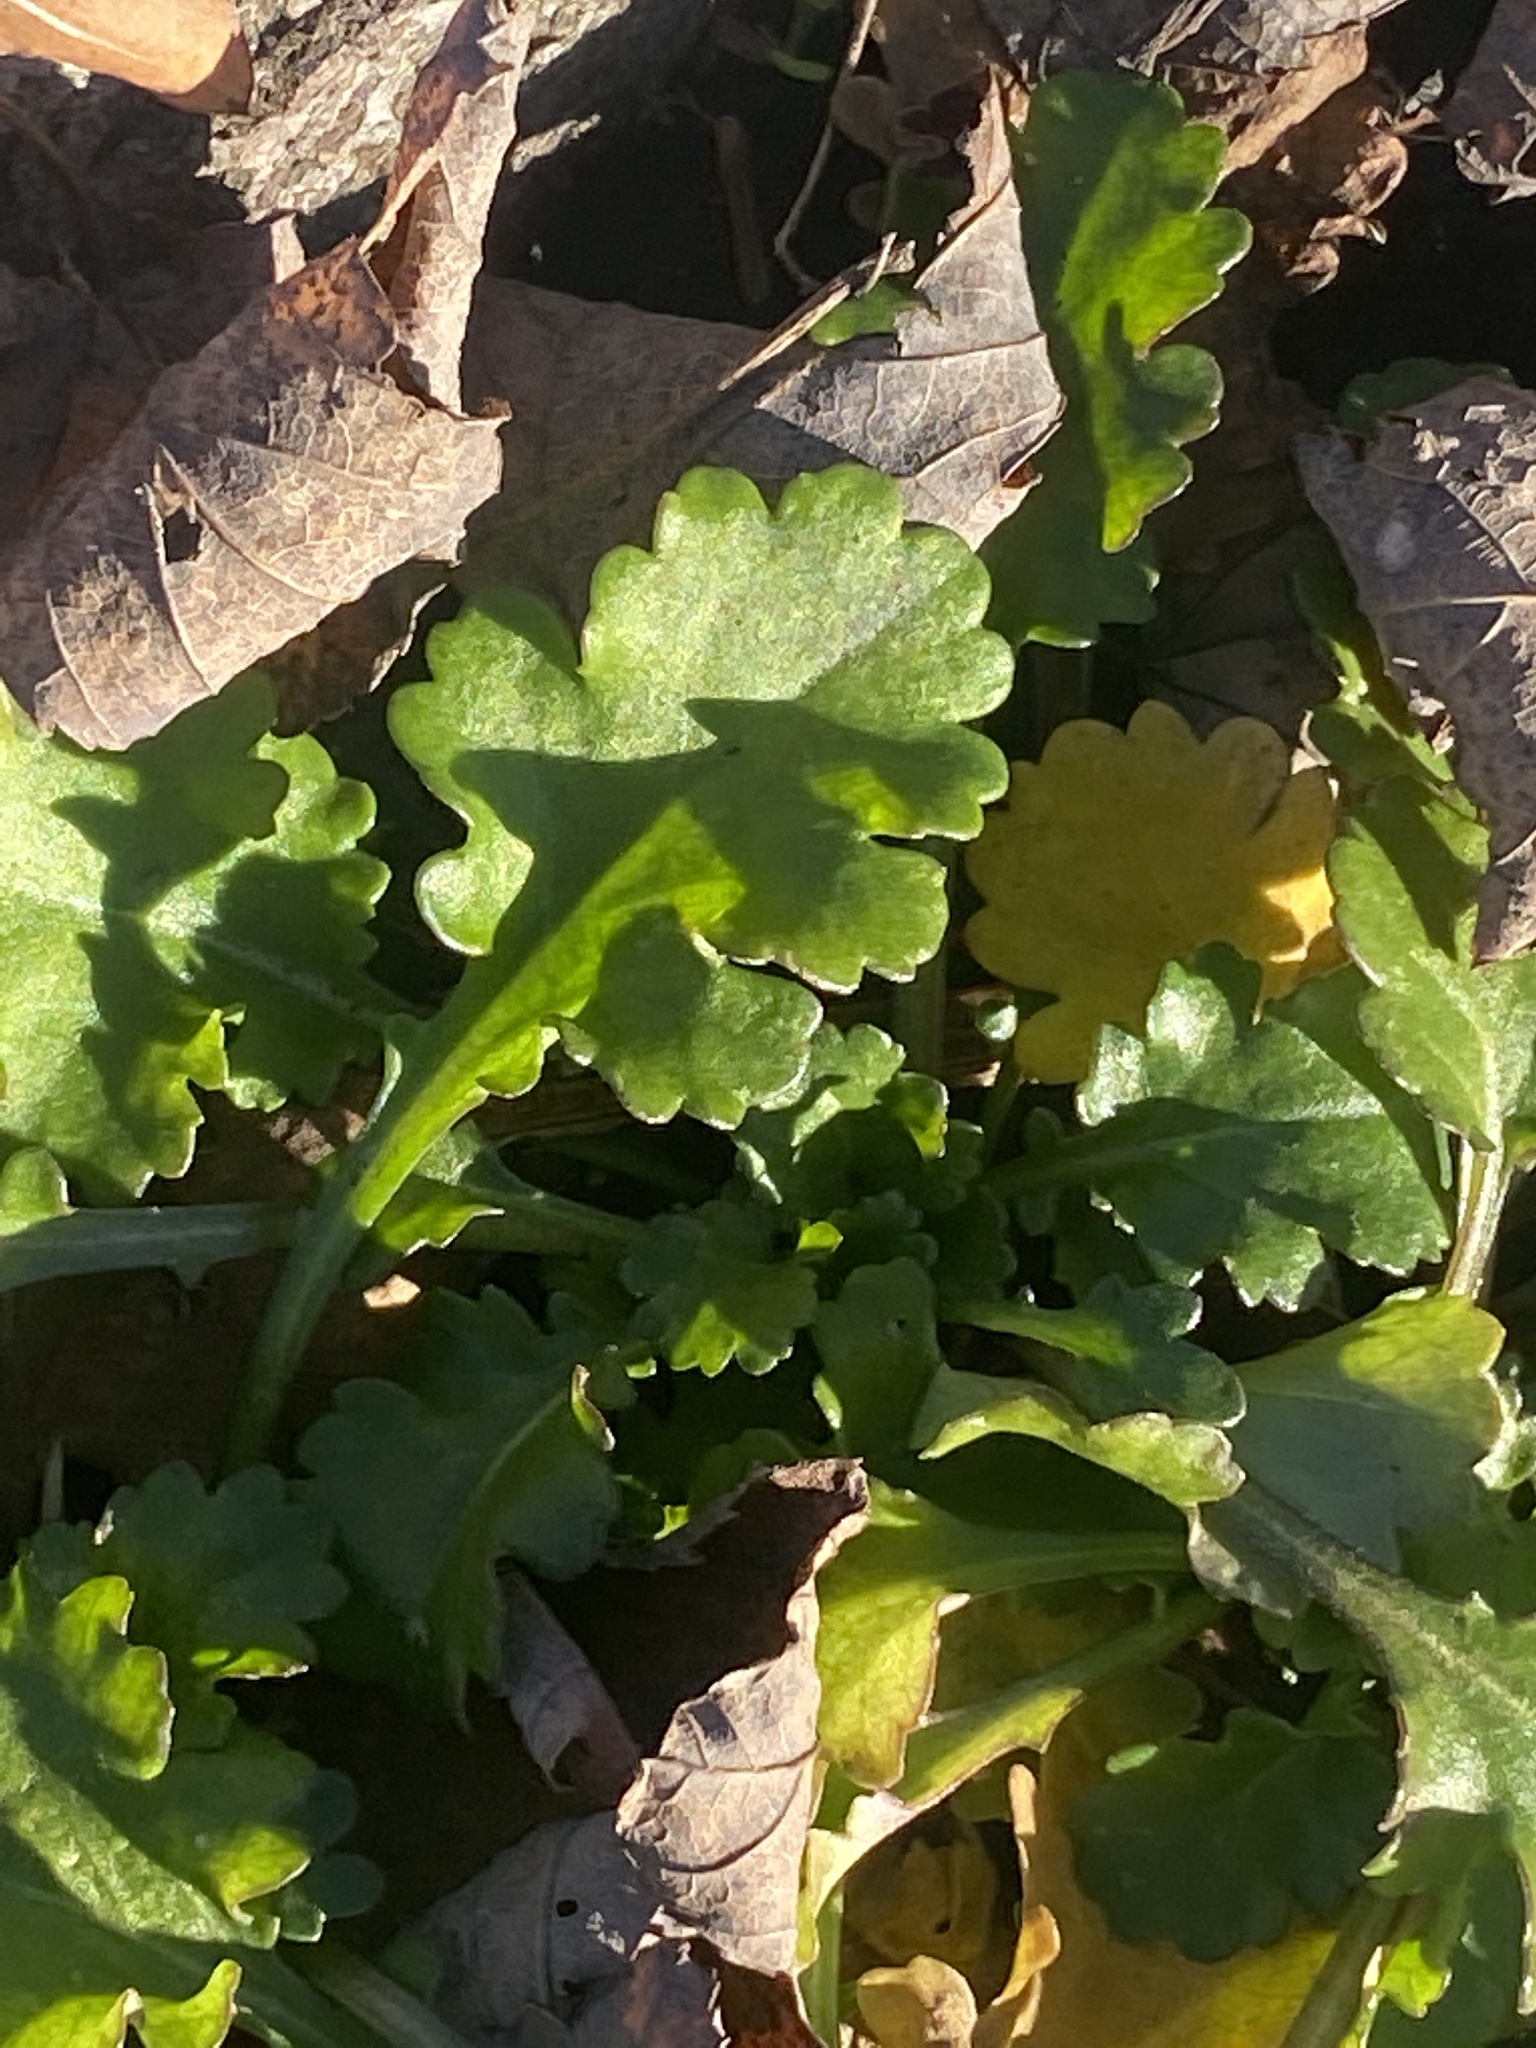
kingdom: Plantae
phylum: Tracheophyta
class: Magnoliopsida
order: Asterales
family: Asteraceae
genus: Leucanthemum
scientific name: Leucanthemum vulgare
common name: Oxeye daisy
